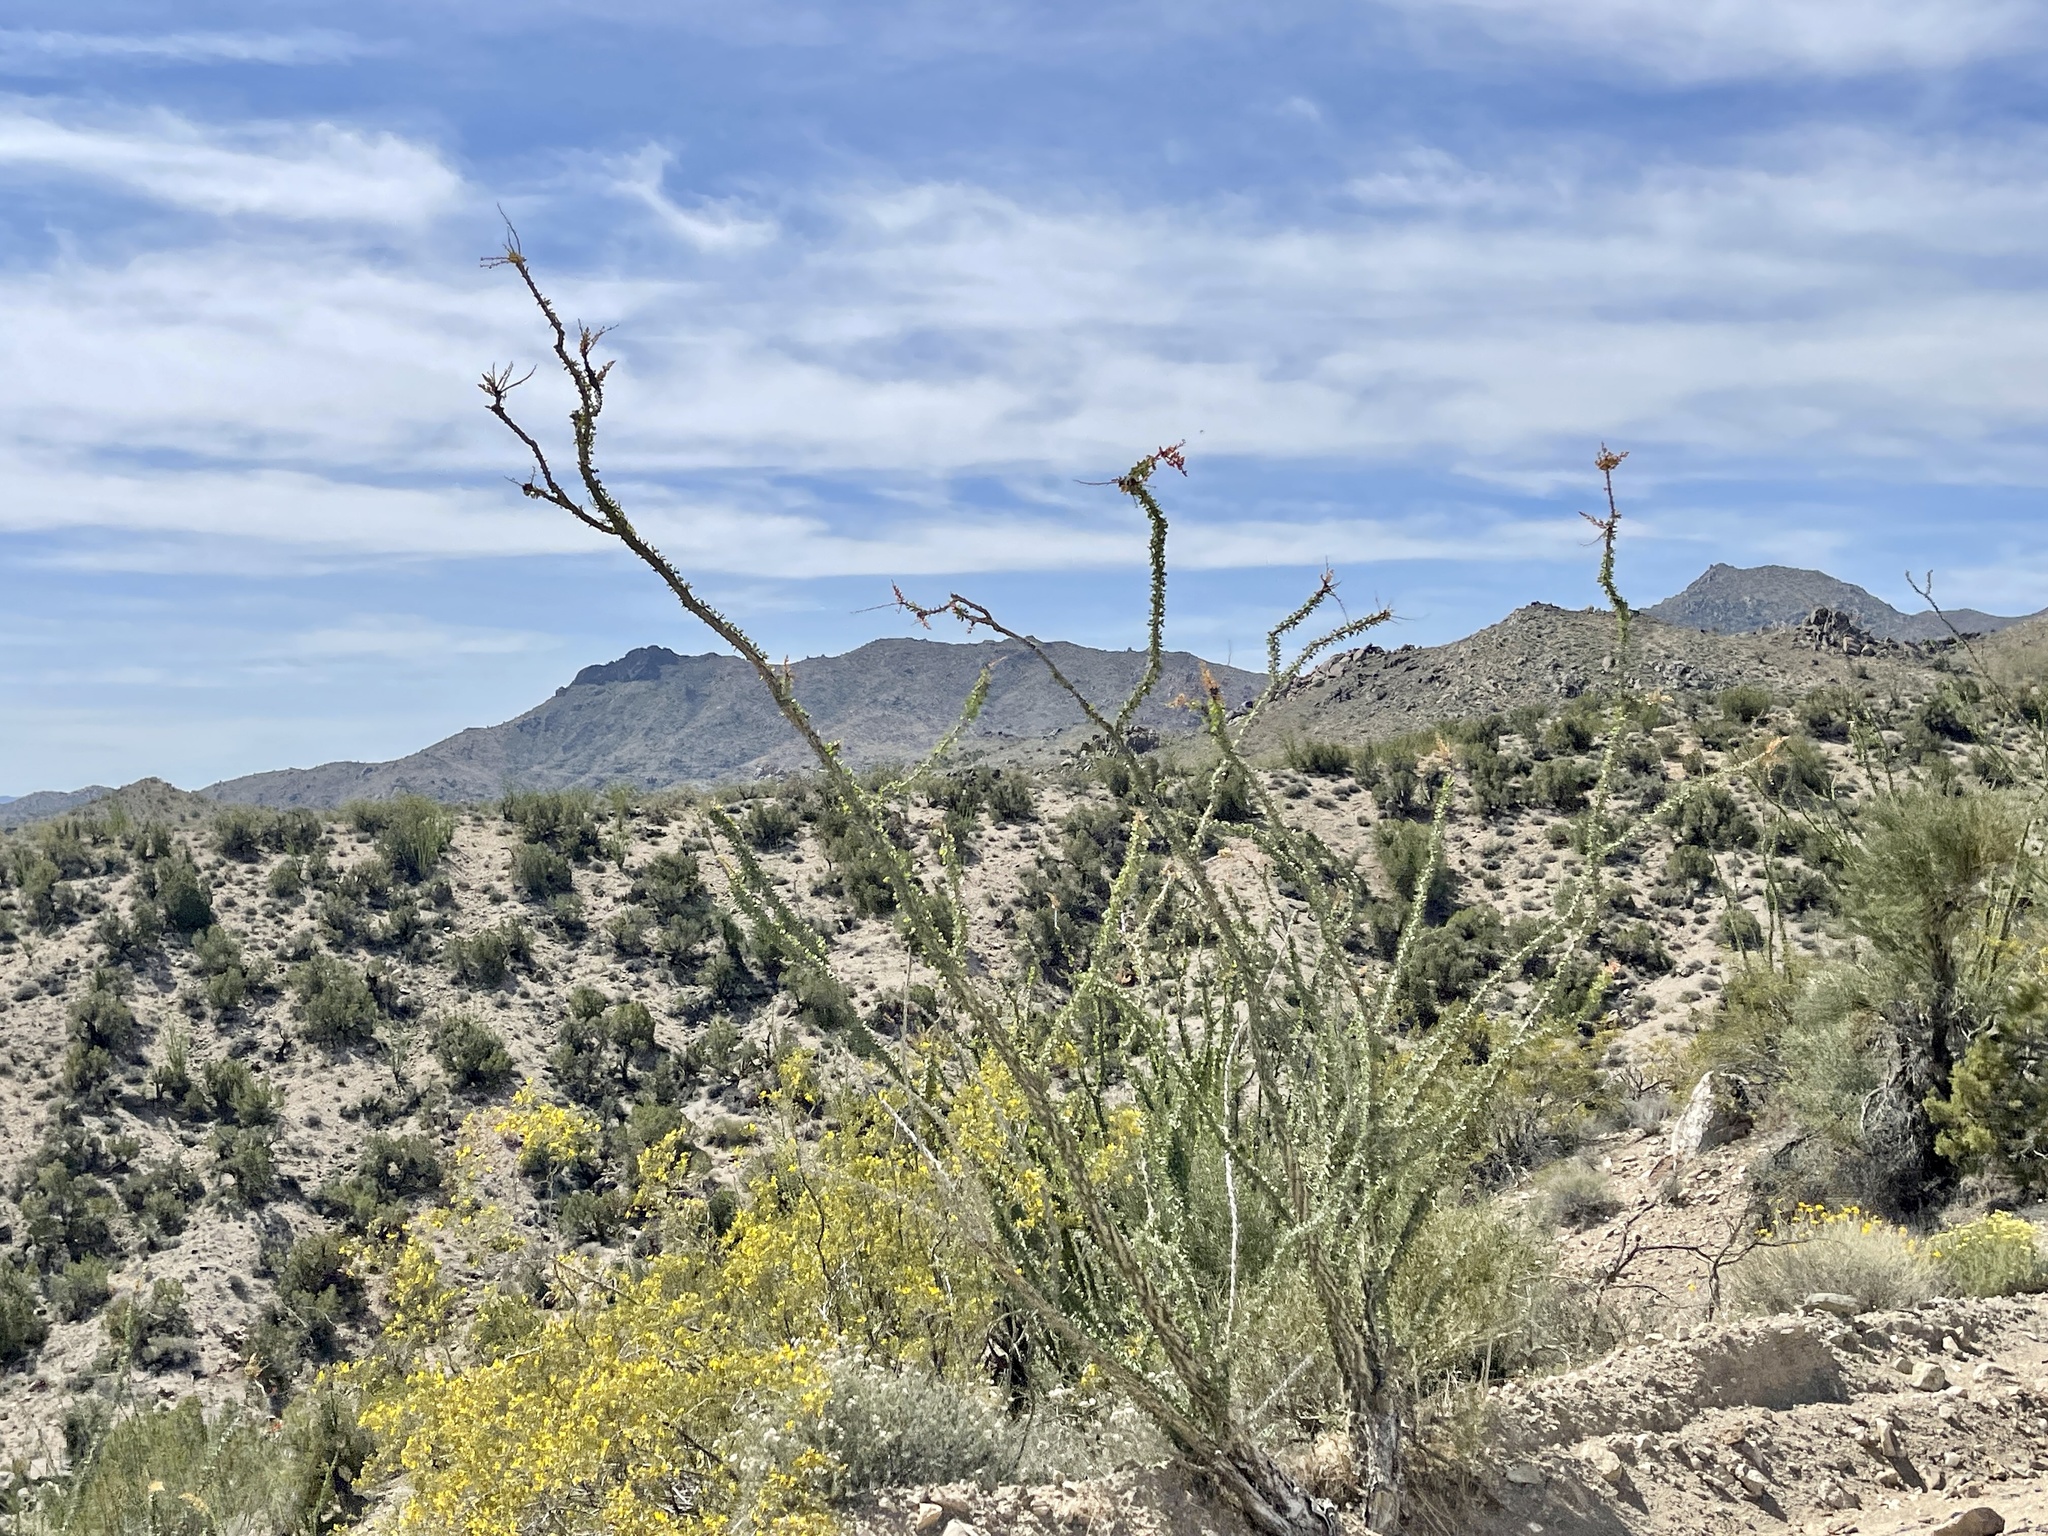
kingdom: Plantae
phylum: Tracheophyta
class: Magnoliopsida
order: Ericales
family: Fouquieriaceae
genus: Fouquieria
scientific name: Fouquieria splendens
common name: Vine-cactus
